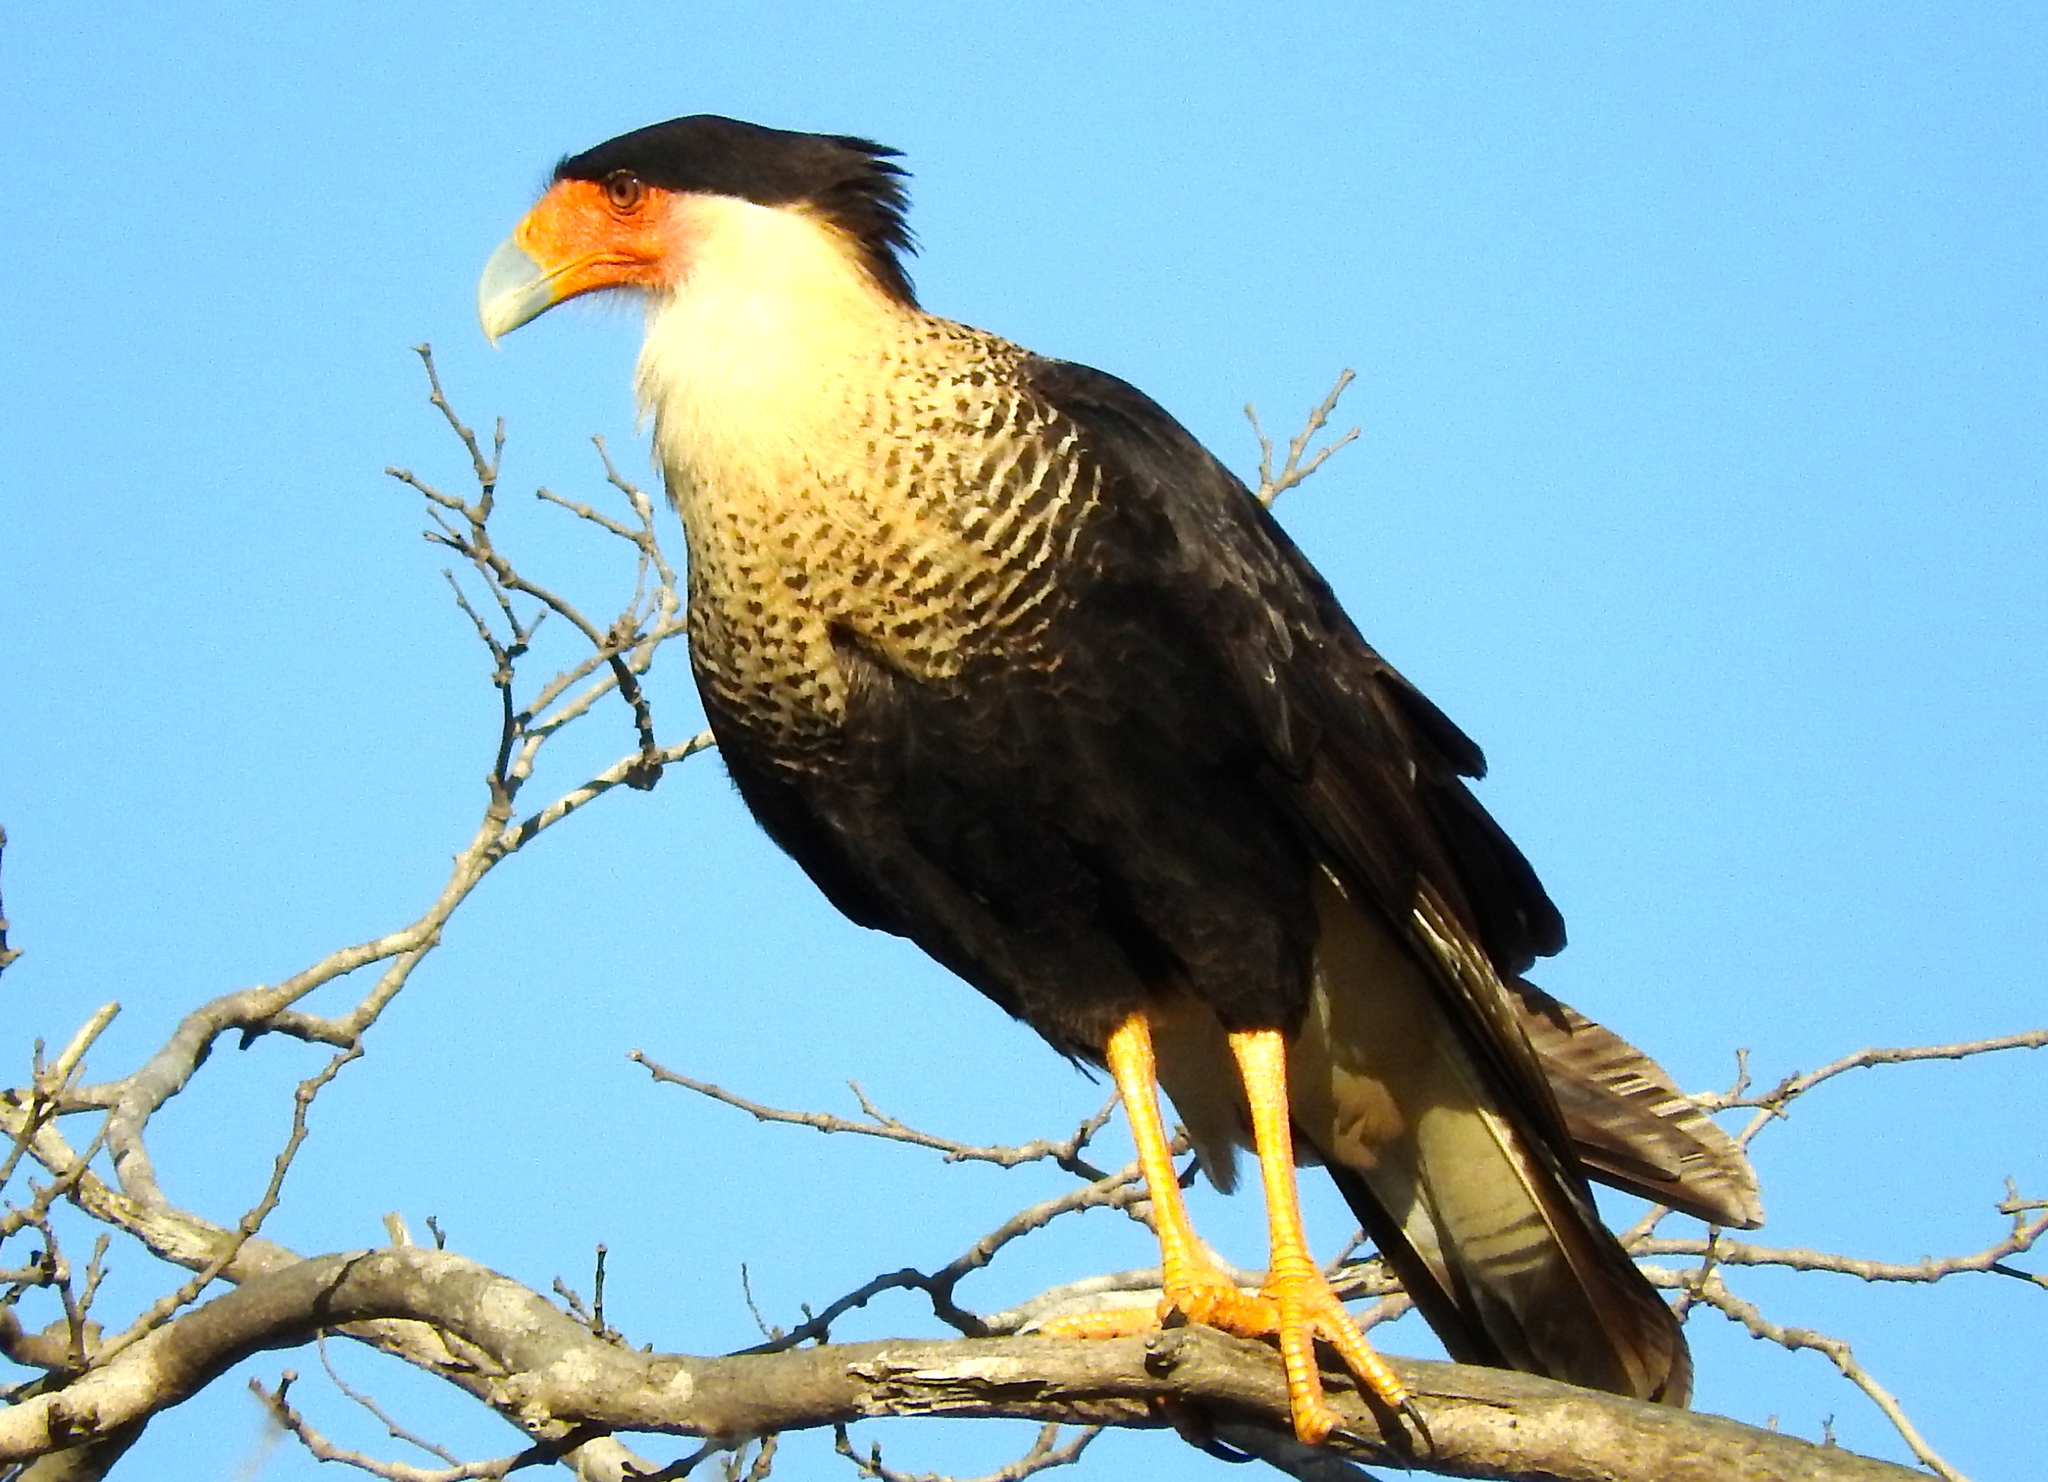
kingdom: Animalia
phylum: Chordata
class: Aves
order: Falconiformes
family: Falconidae
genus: Caracara
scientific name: Caracara plancus
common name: Southern caracara
